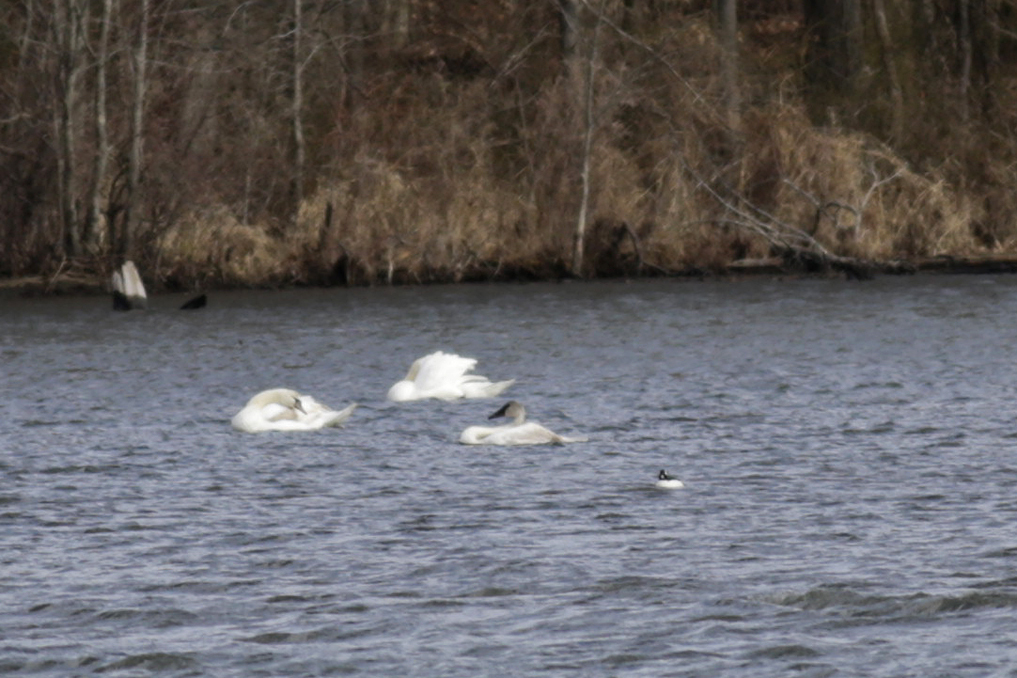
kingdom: Animalia
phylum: Chordata
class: Aves
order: Anseriformes
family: Anatidae
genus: Cygnus
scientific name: Cygnus buccinator
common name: Trumpeter swan
